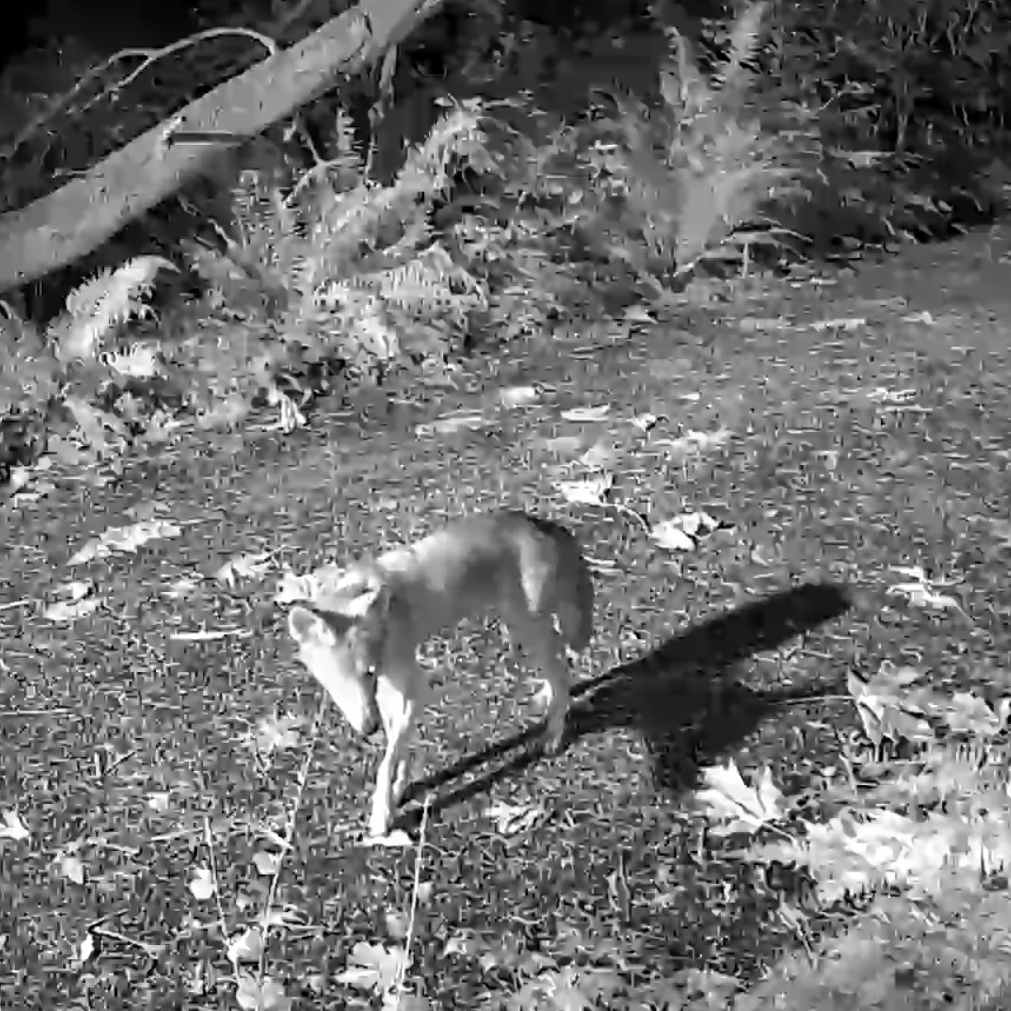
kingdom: Animalia
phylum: Chordata
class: Mammalia
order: Carnivora
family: Canidae
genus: Canis
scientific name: Canis latrans
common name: Coyote
